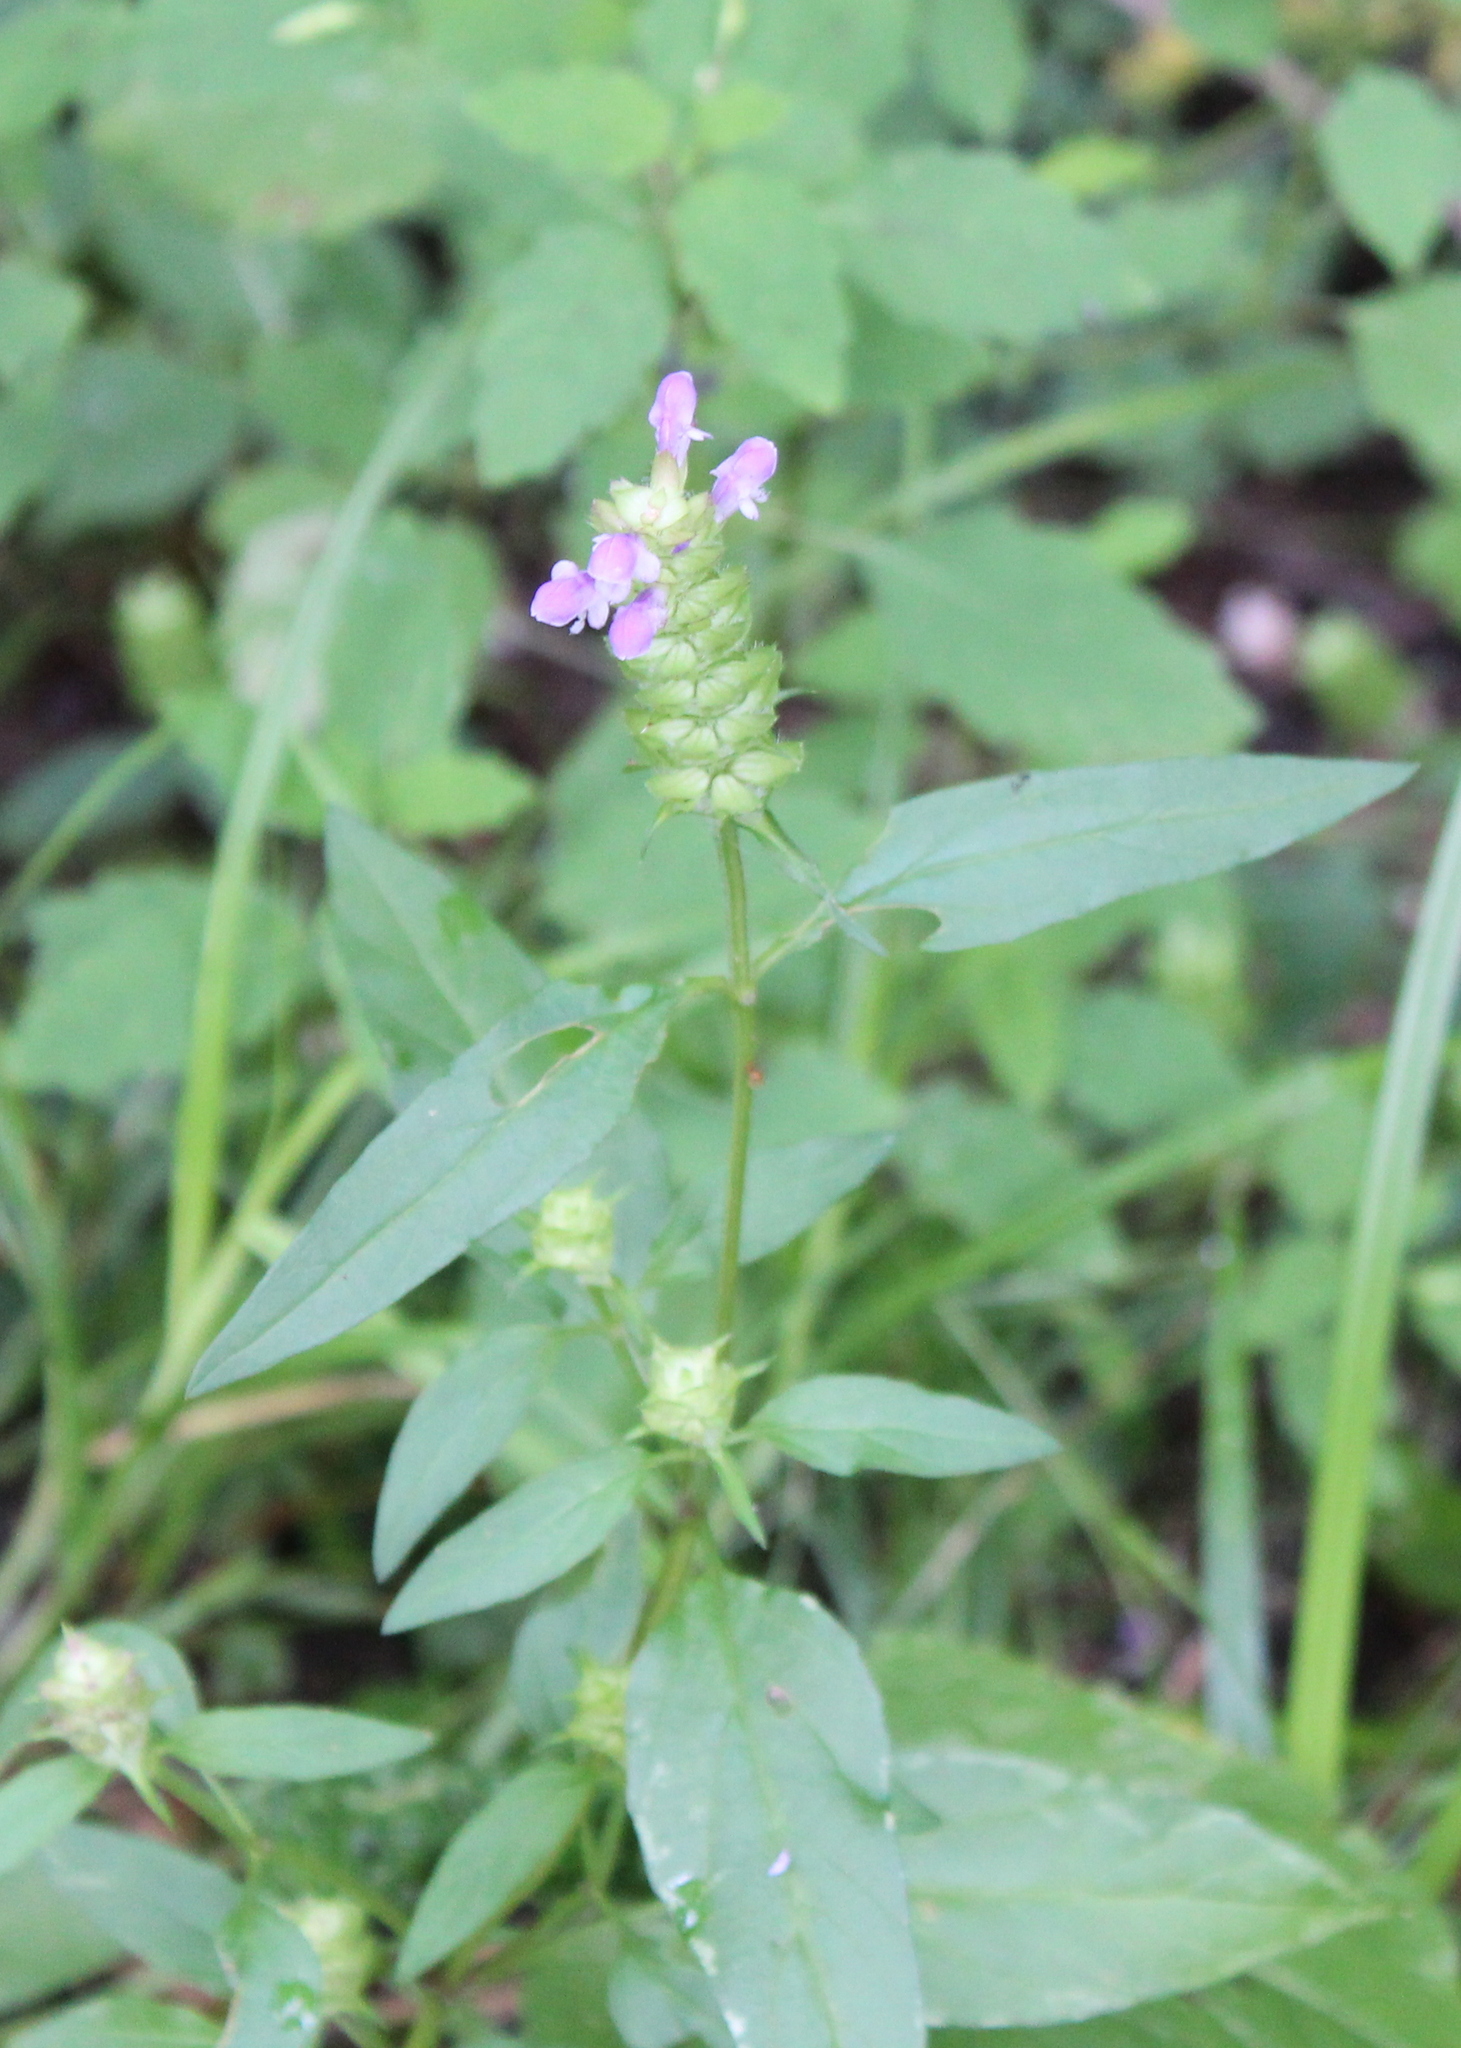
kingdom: Plantae
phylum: Tracheophyta
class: Magnoliopsida
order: Lamiales
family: Lamiaceae
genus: Prunella
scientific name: Prunella vulgaris
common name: Heal-all
